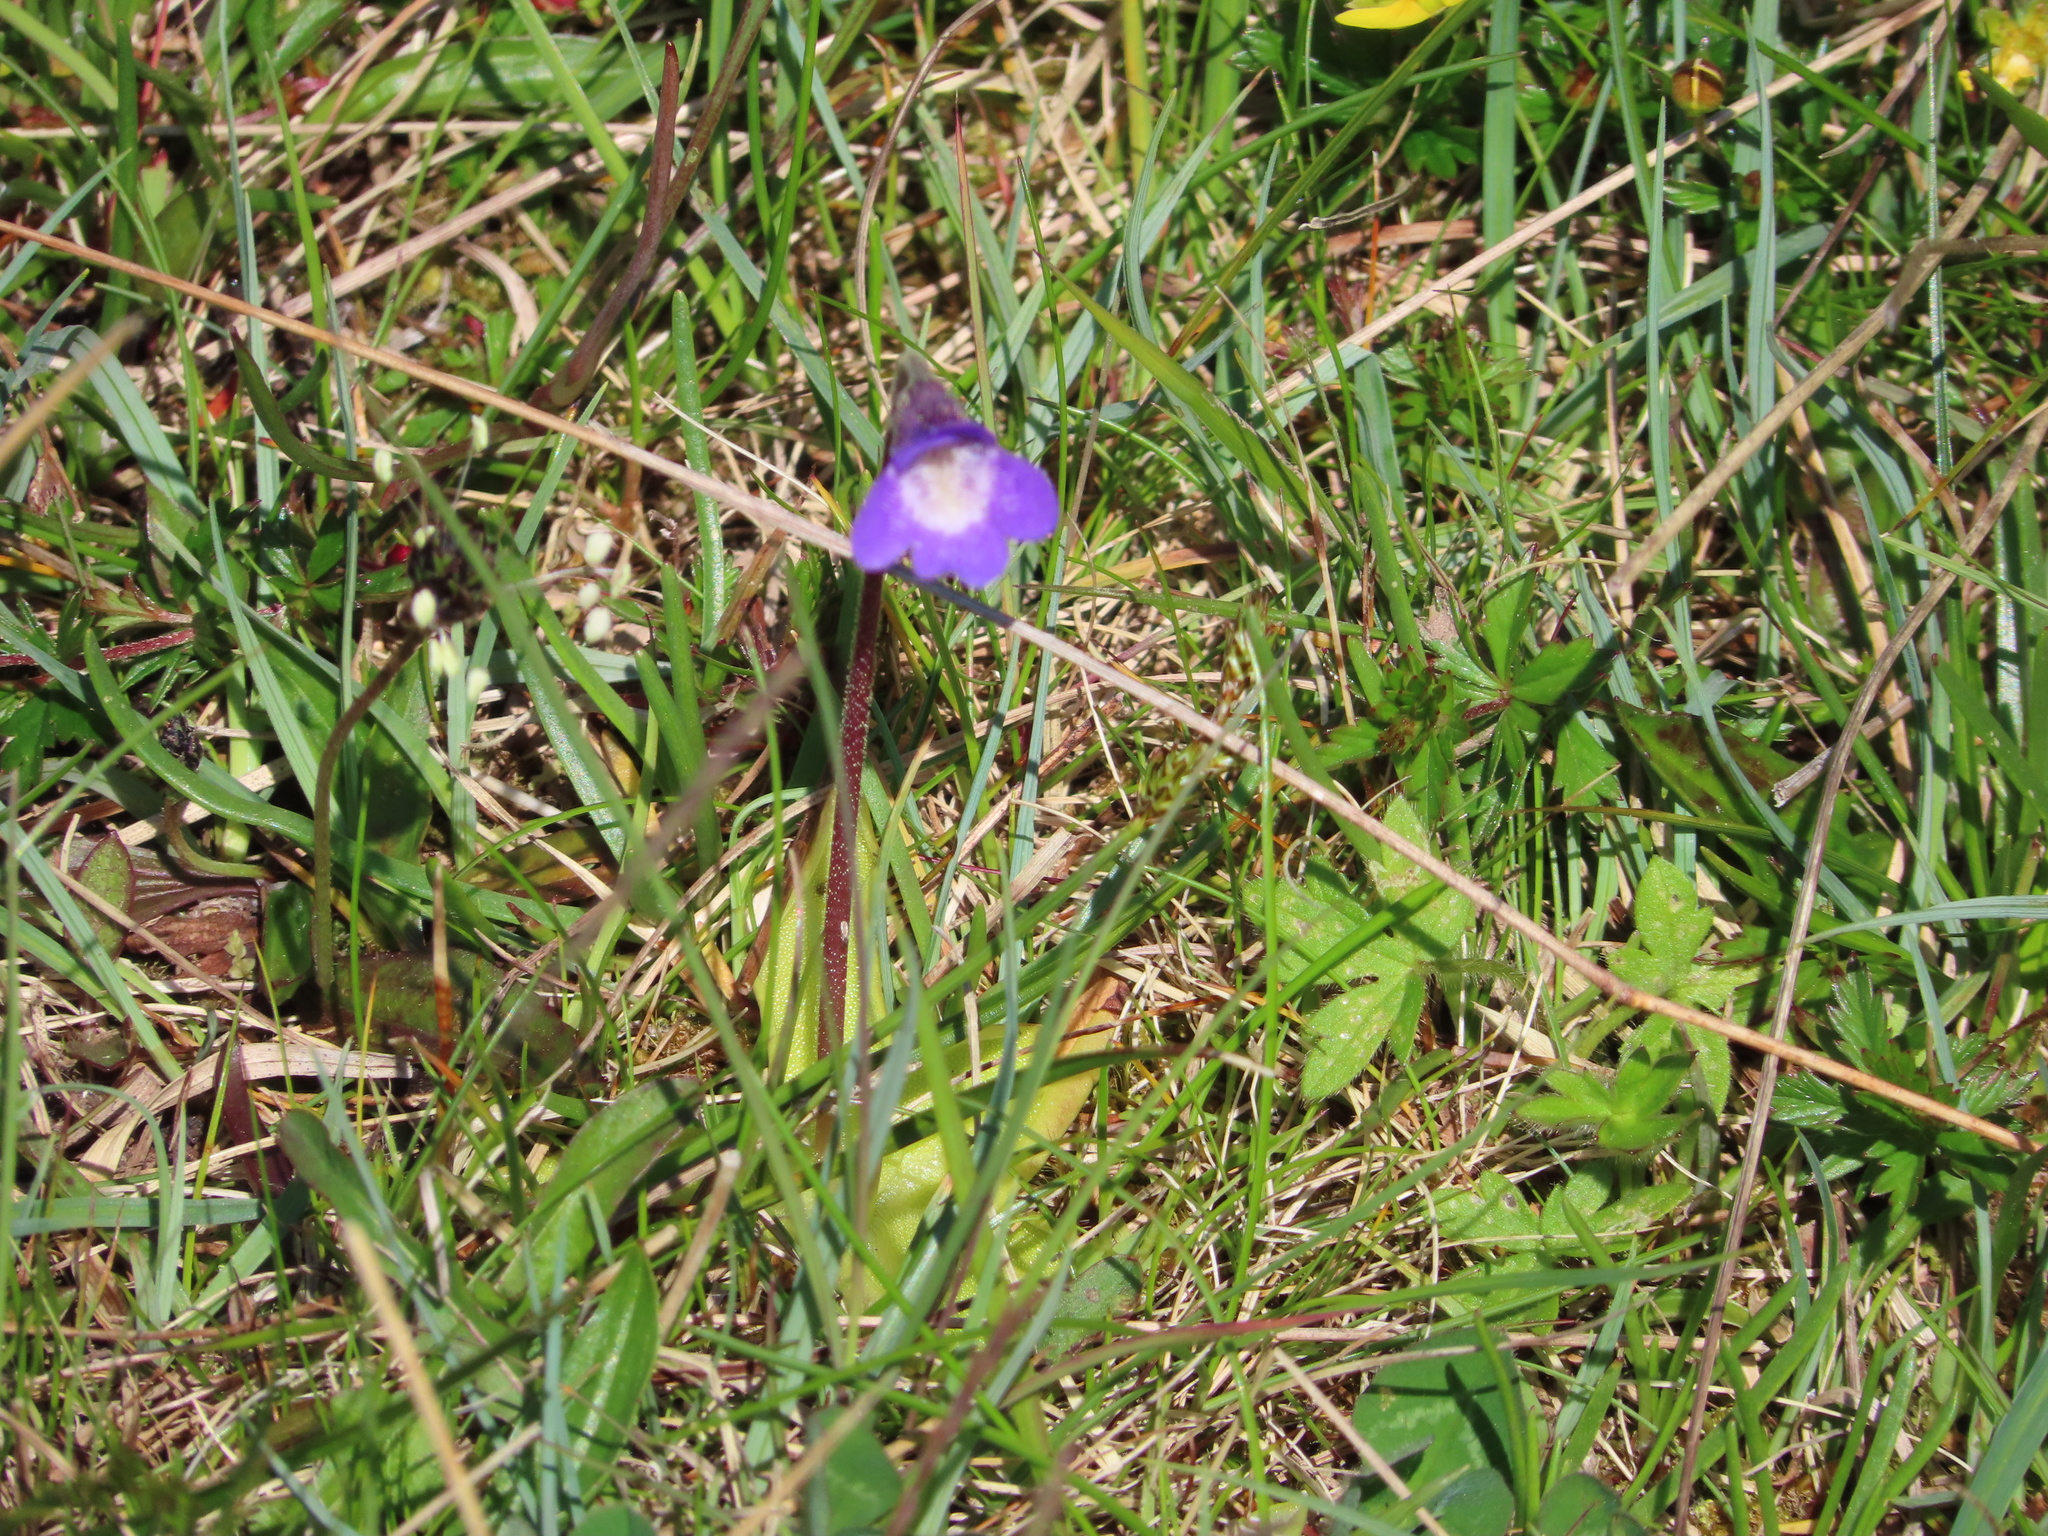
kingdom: Plantae
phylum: Tracheophyta
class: Magnoliopsida
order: Lamiales
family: Lentibulariaceae
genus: Pinguicula
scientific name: Pinguicula vulgaris
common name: Common butterwort
